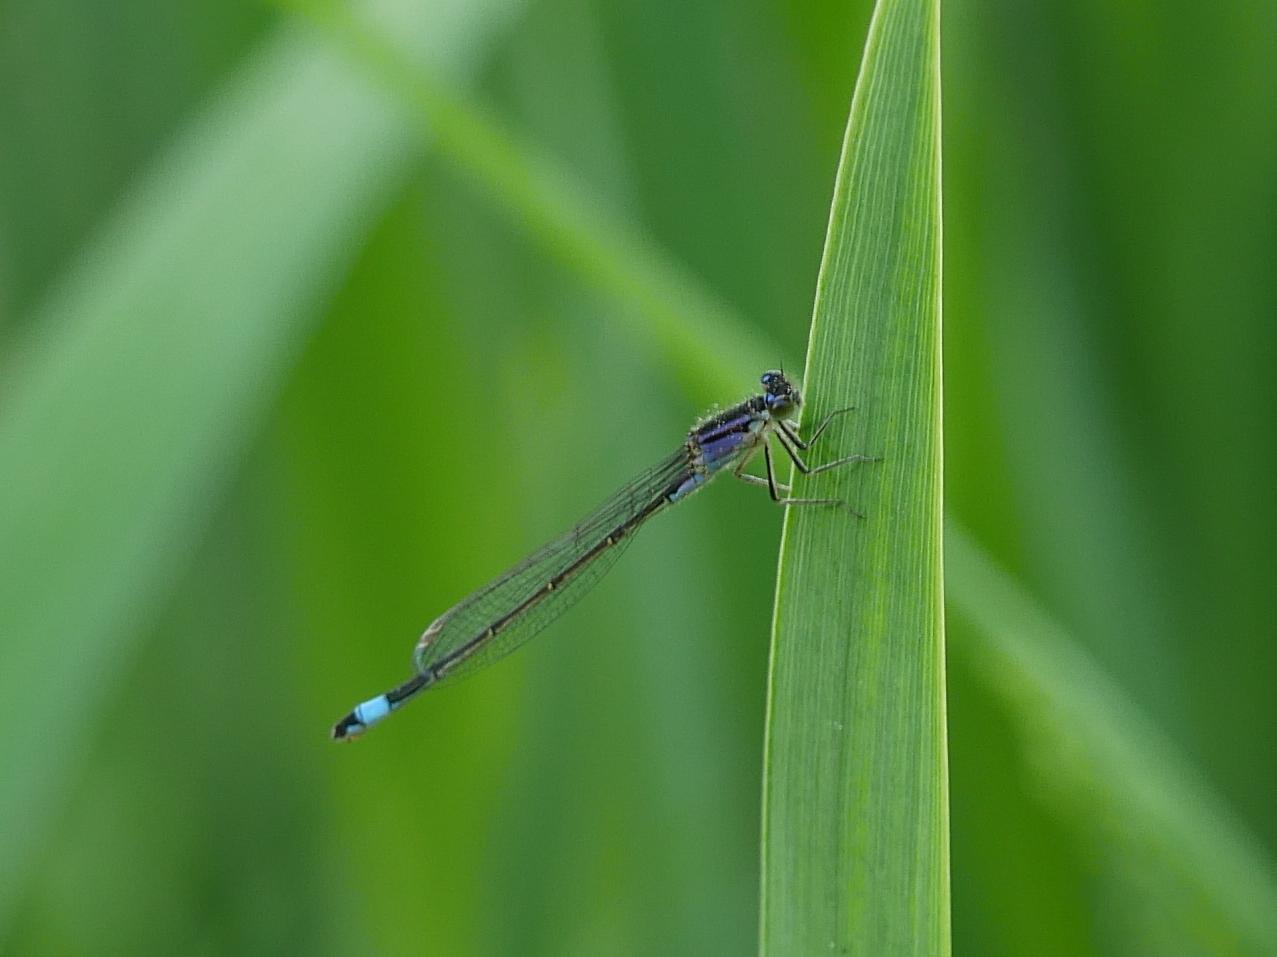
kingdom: Animalia
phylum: Arthropoda
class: Insecta
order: Odonata
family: Coenagrionidae
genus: Ischnura
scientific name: Ischnura elegans
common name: Blue-tailed damselfly
